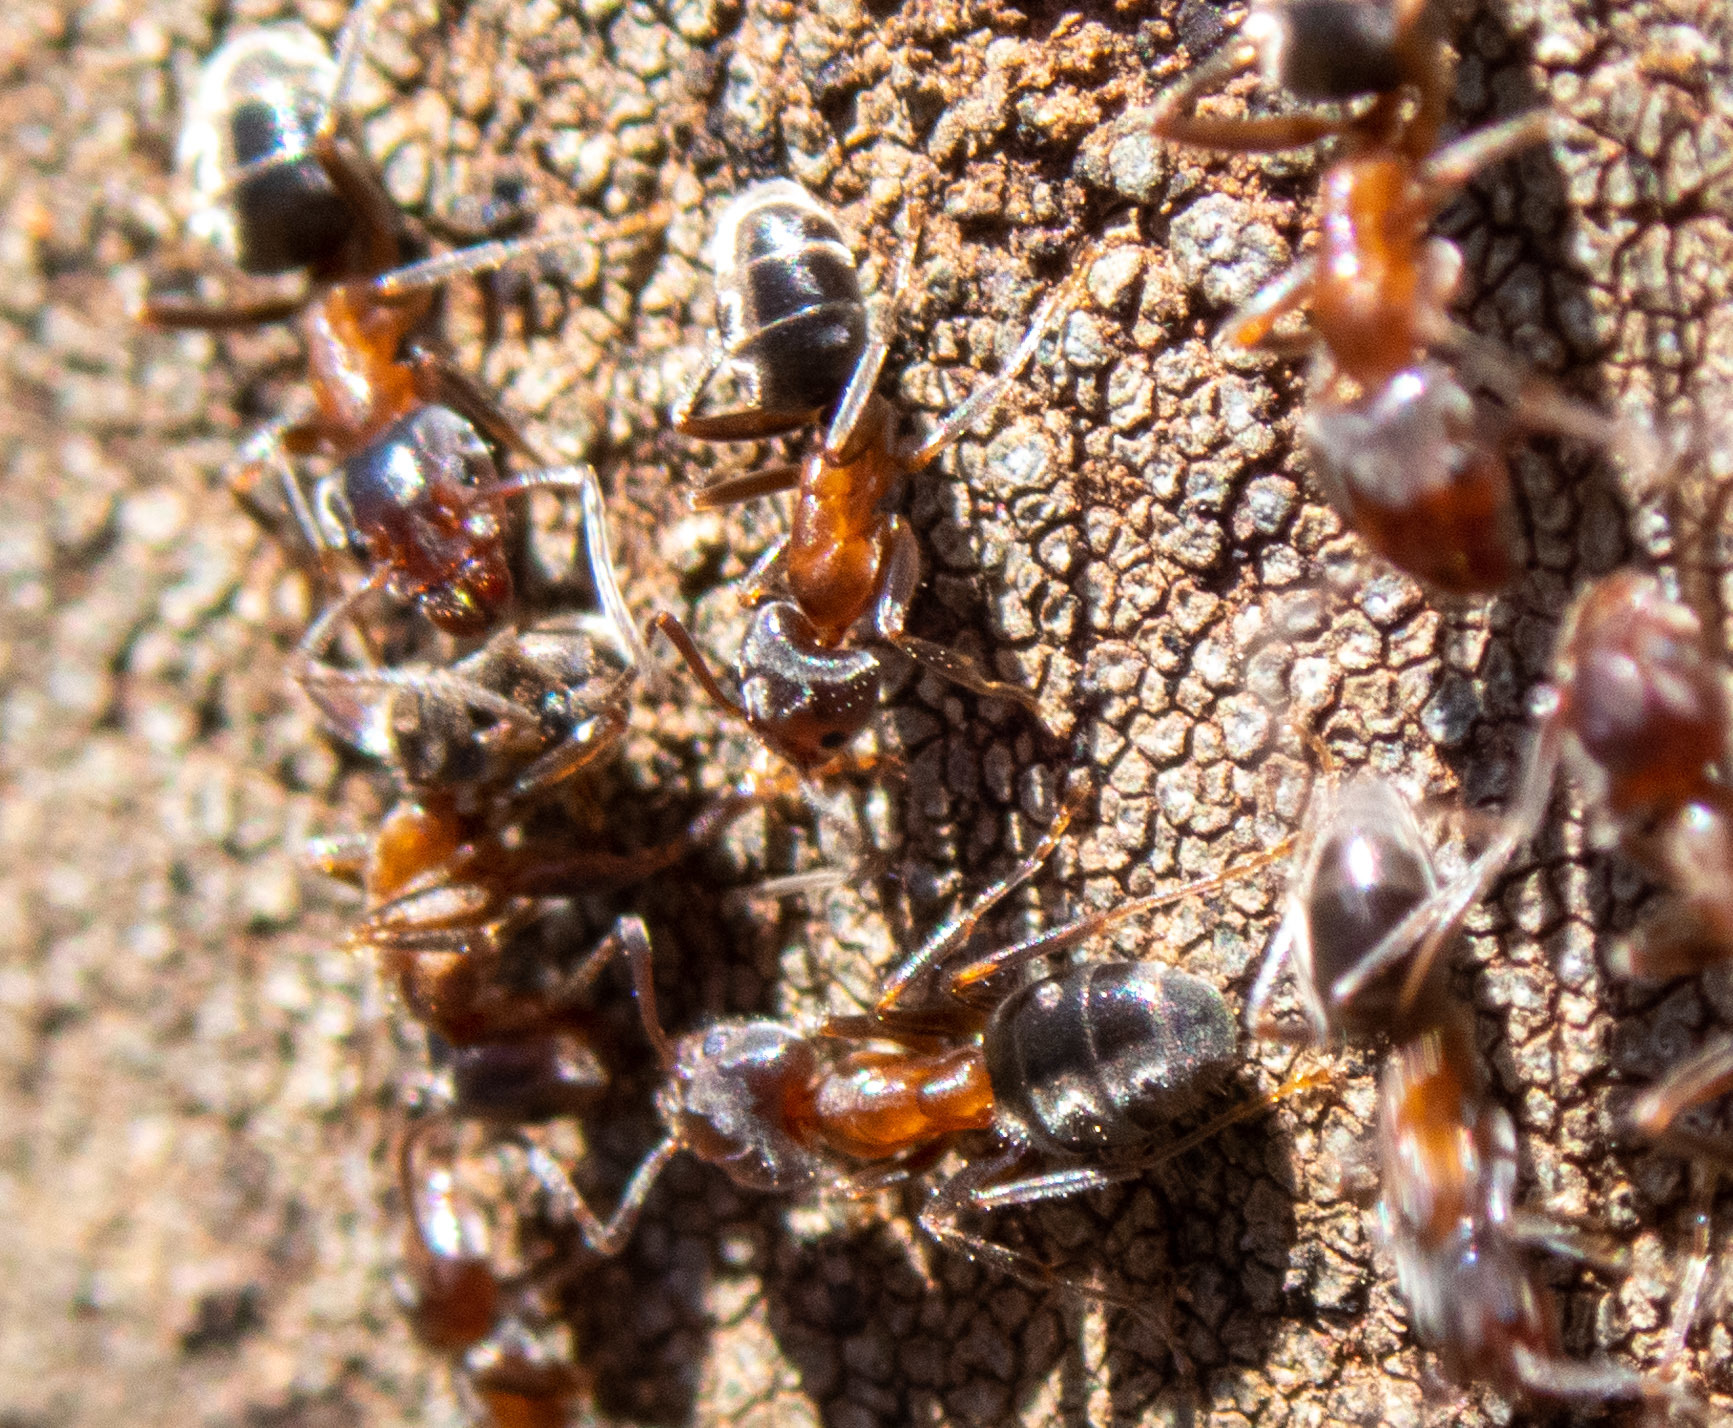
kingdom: Animalia
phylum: Arthropoda
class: Insecta
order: Hymenoptera
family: Formicidae
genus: Liometopum
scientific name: Liometopum occidentale
